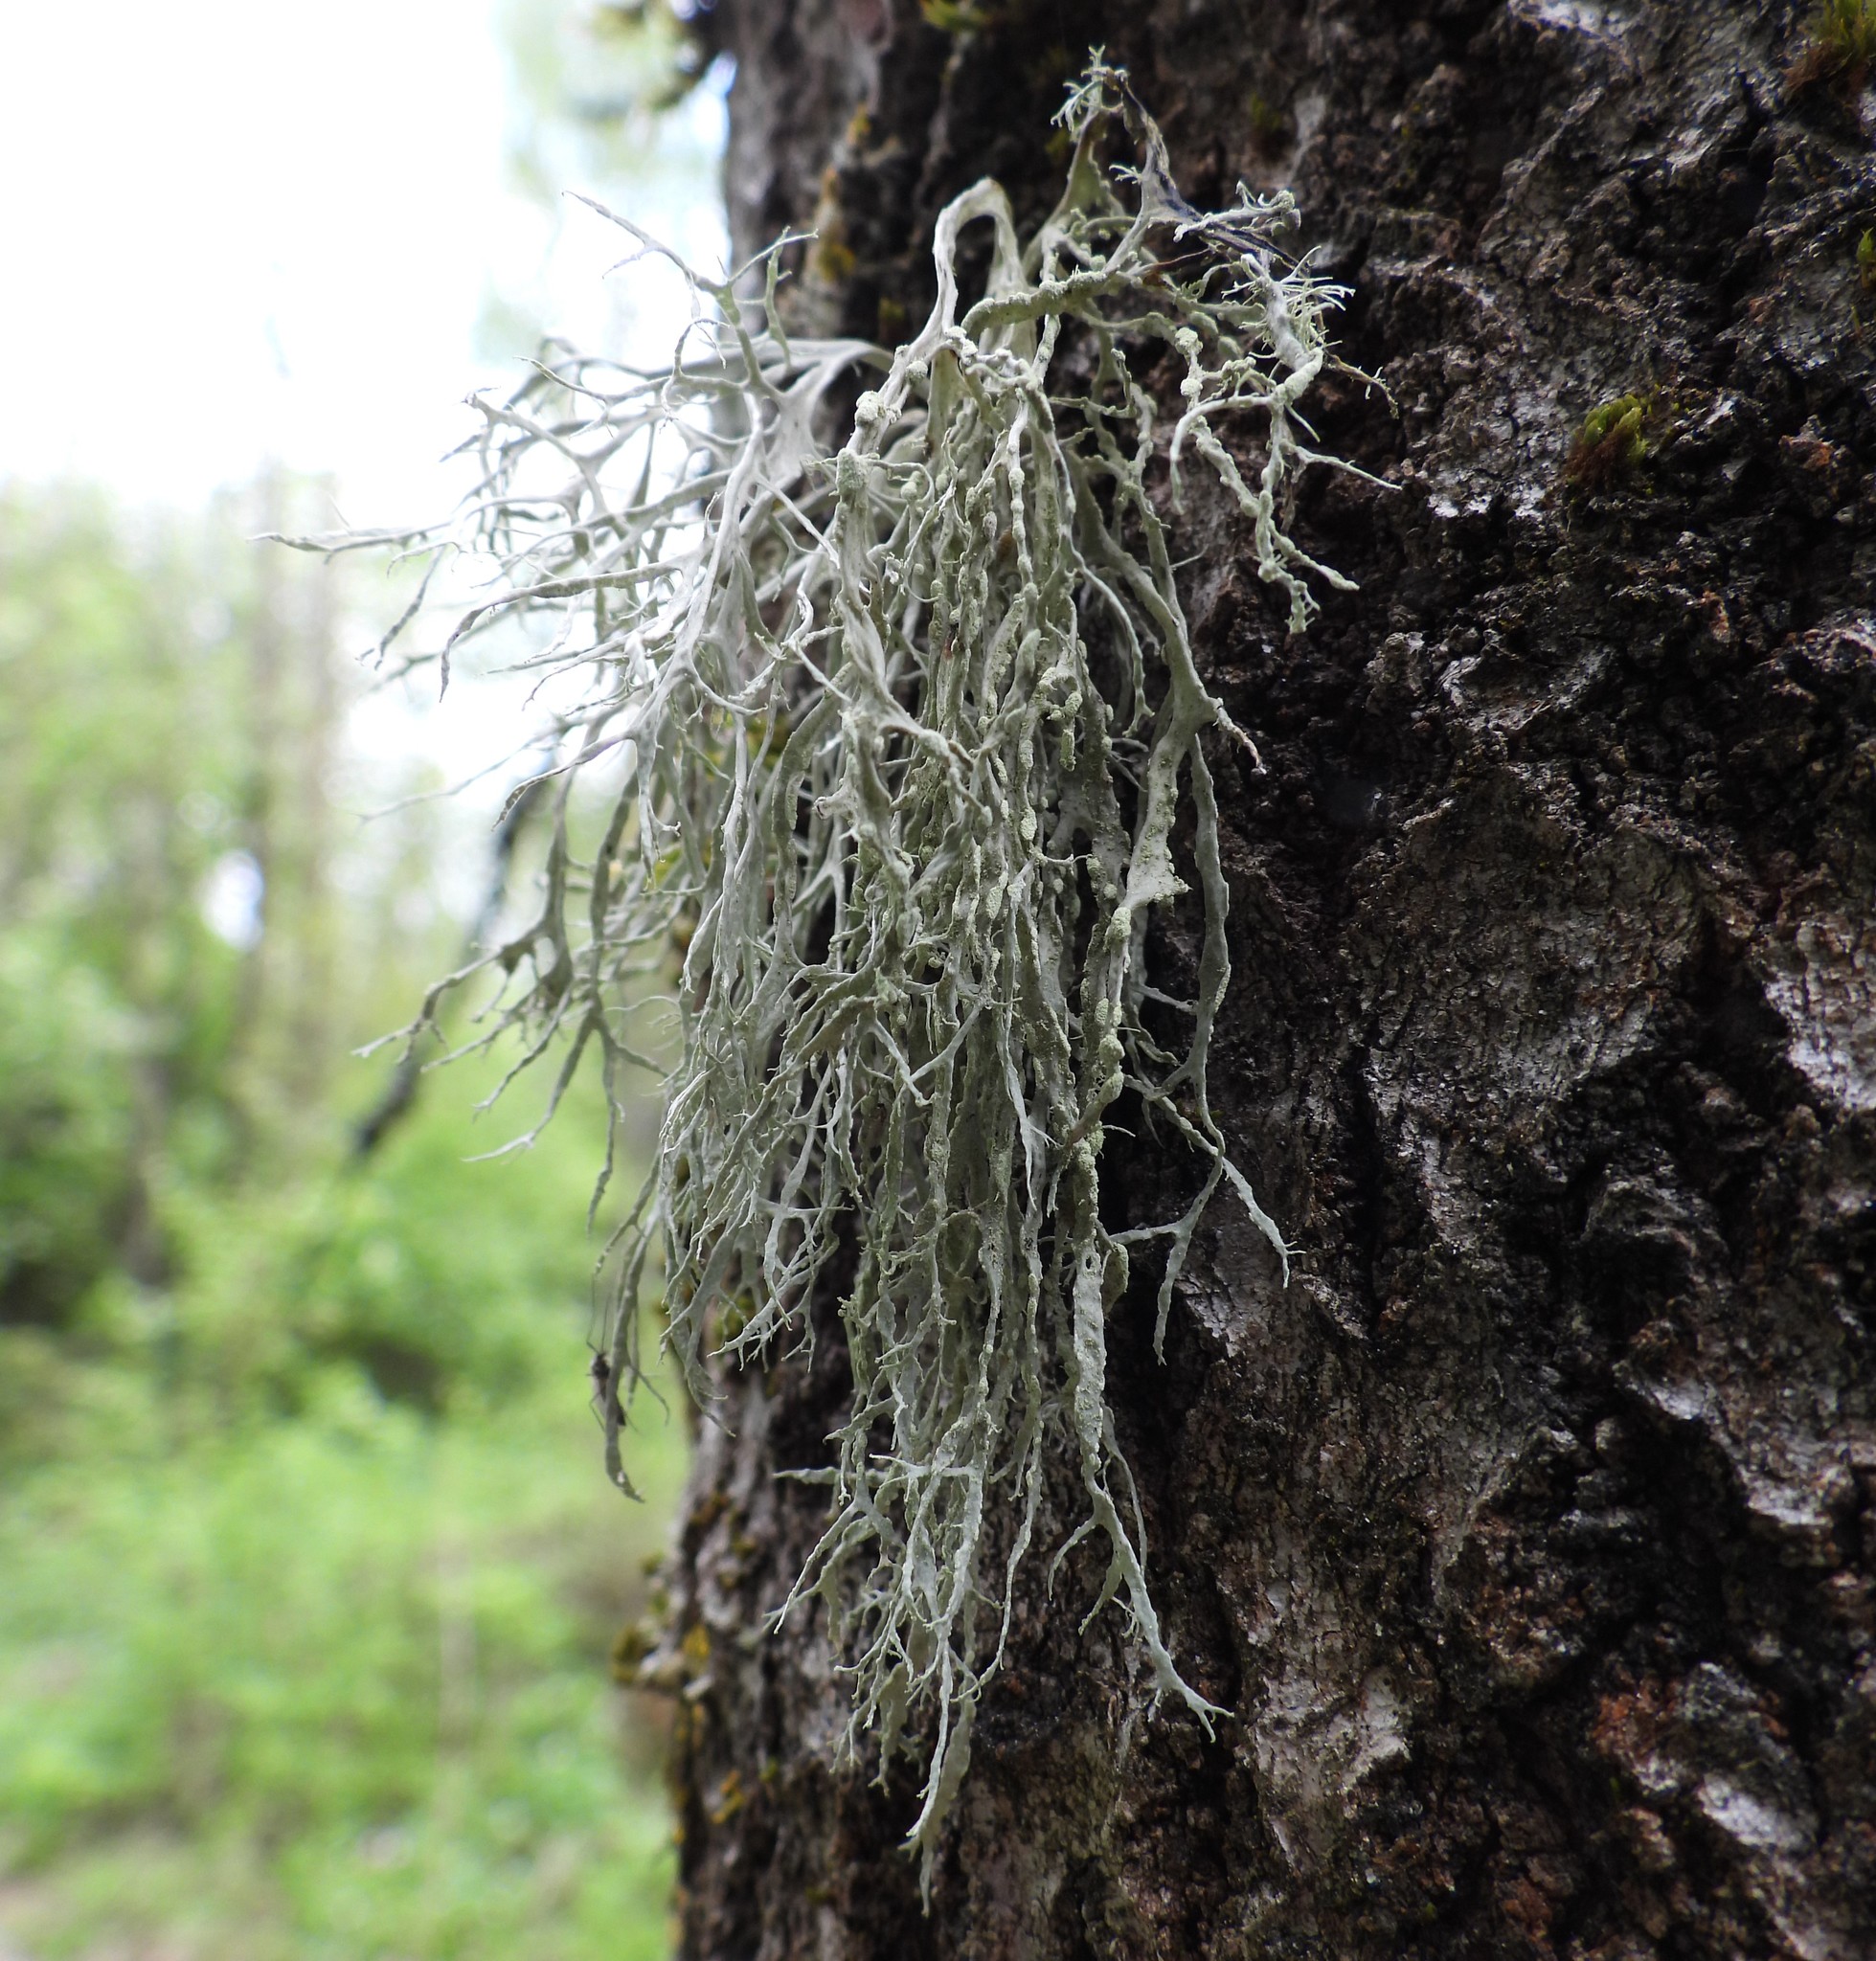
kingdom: Fungi
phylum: Ascomycota
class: Lecanoromycetes
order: Lecanorales
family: Ramalinaceae
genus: Ramalina
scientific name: Ramalina farinacea
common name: Farinose cartilage lichen
